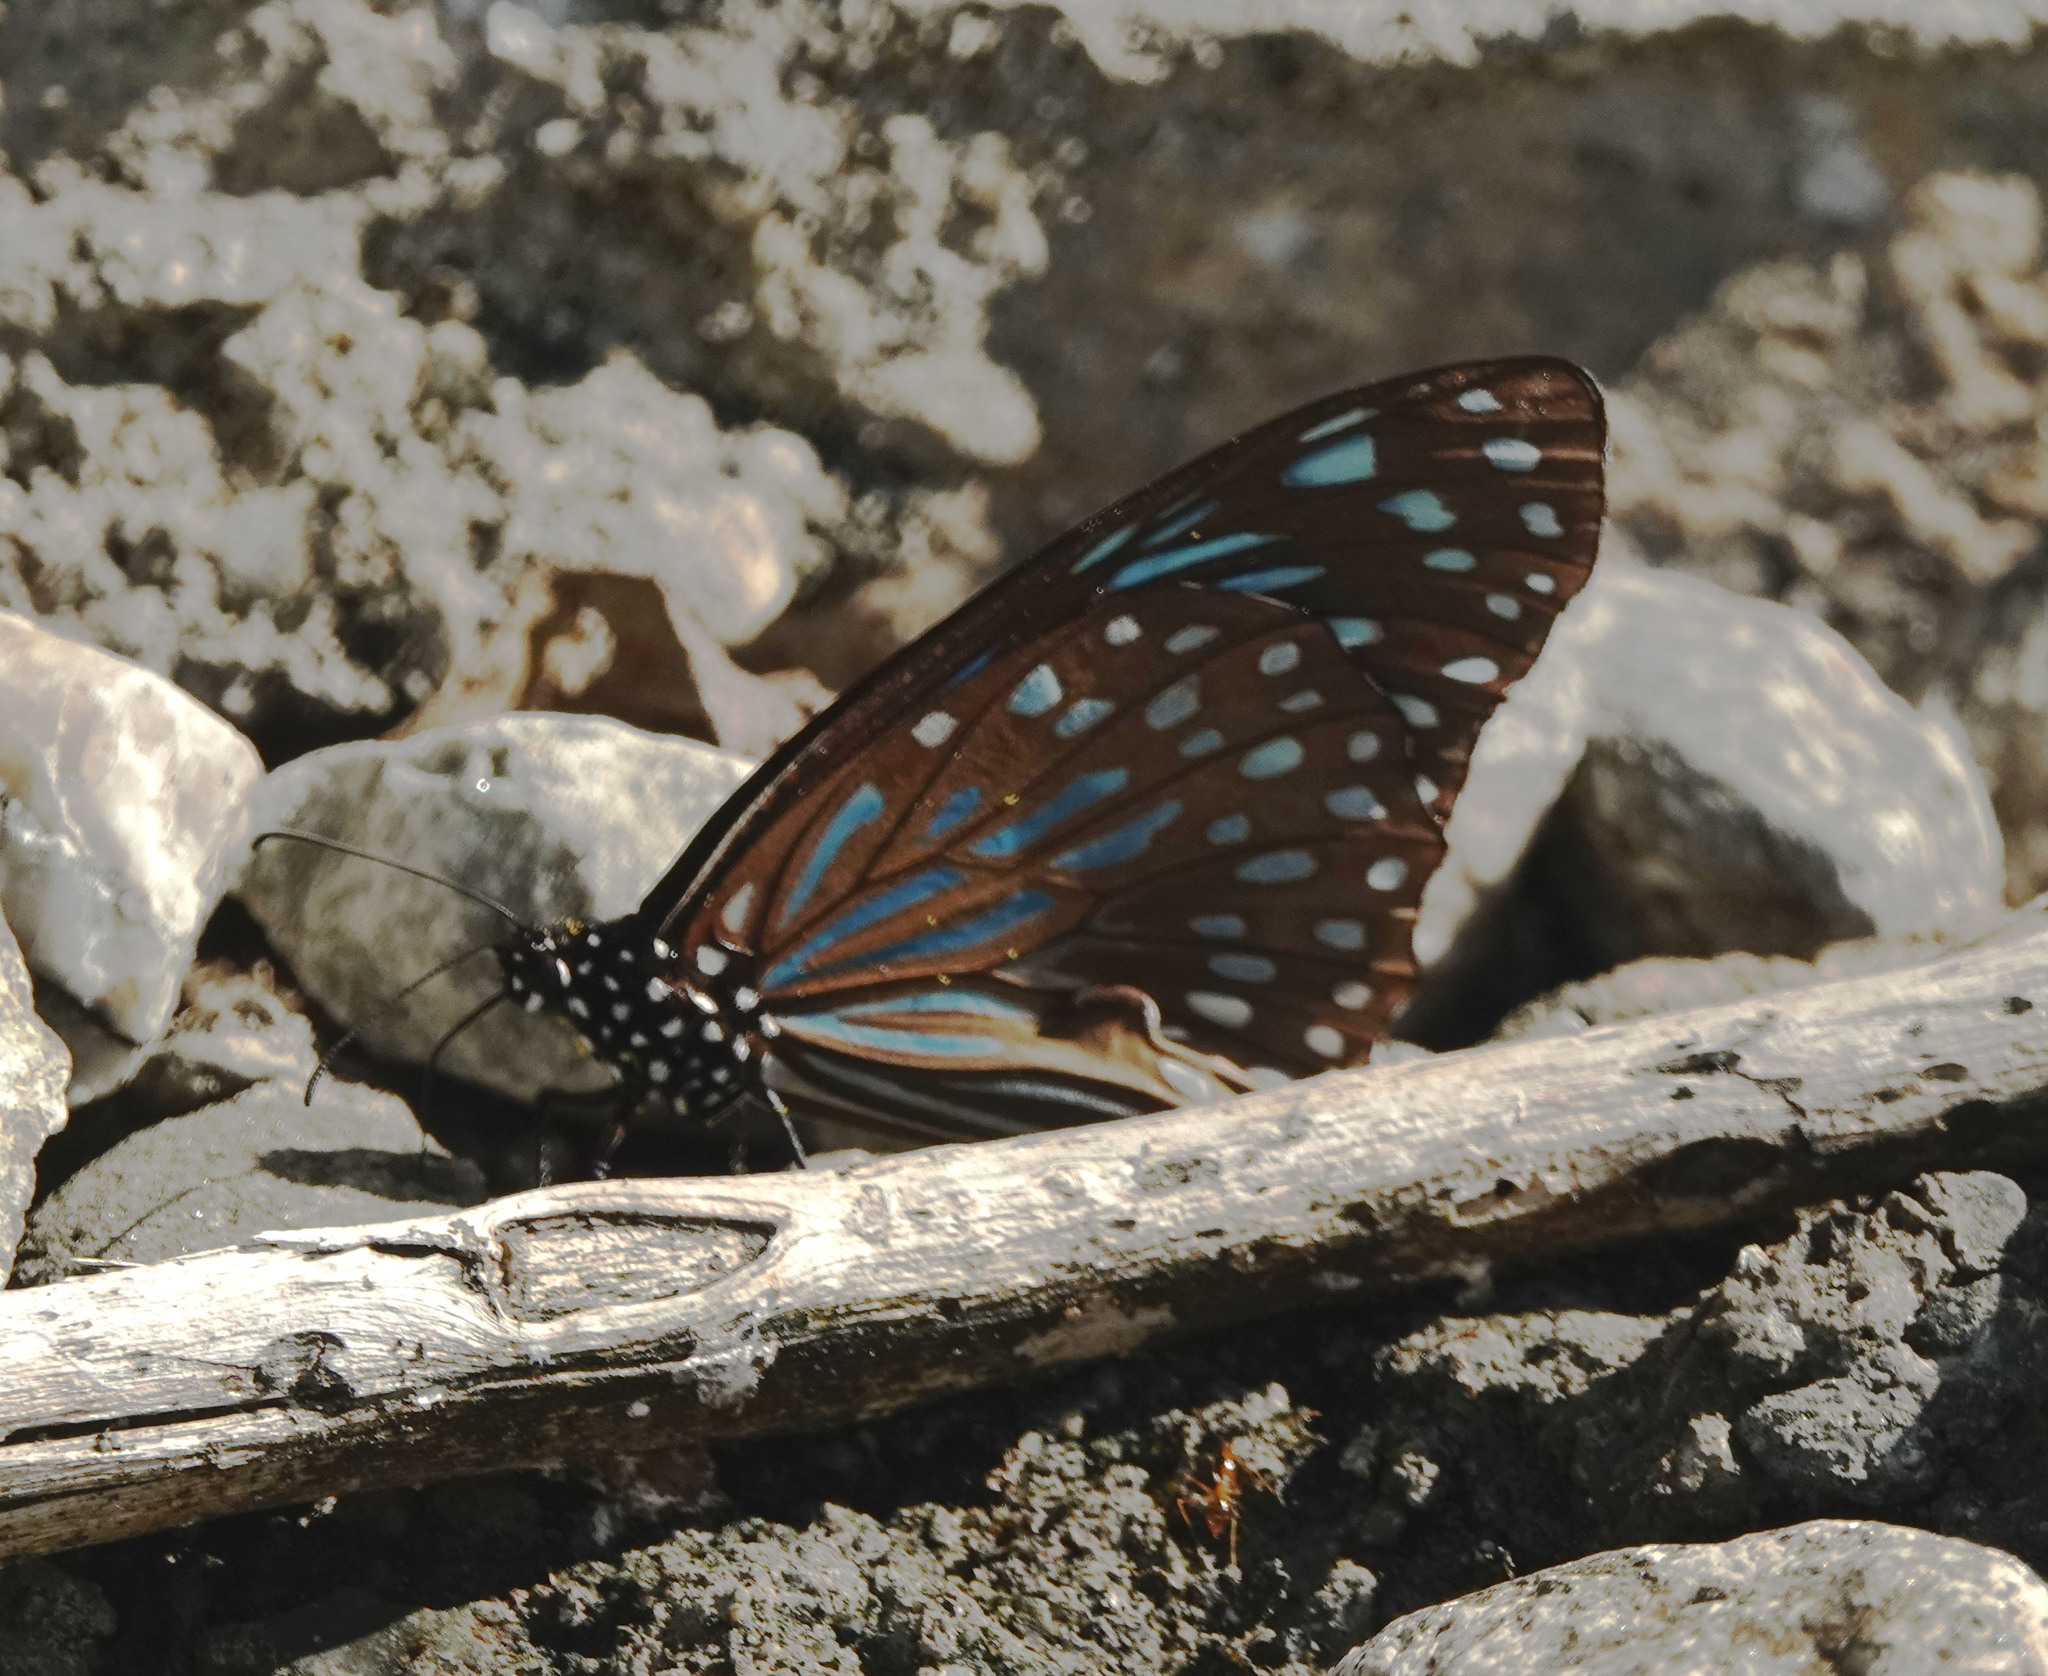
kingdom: Animalia
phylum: Arthropoda
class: Insecta
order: Lepidoptera
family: Nymphalidae
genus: Tirumala
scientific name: Tirumala septentrionis
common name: Dark blue tiger butterfly
